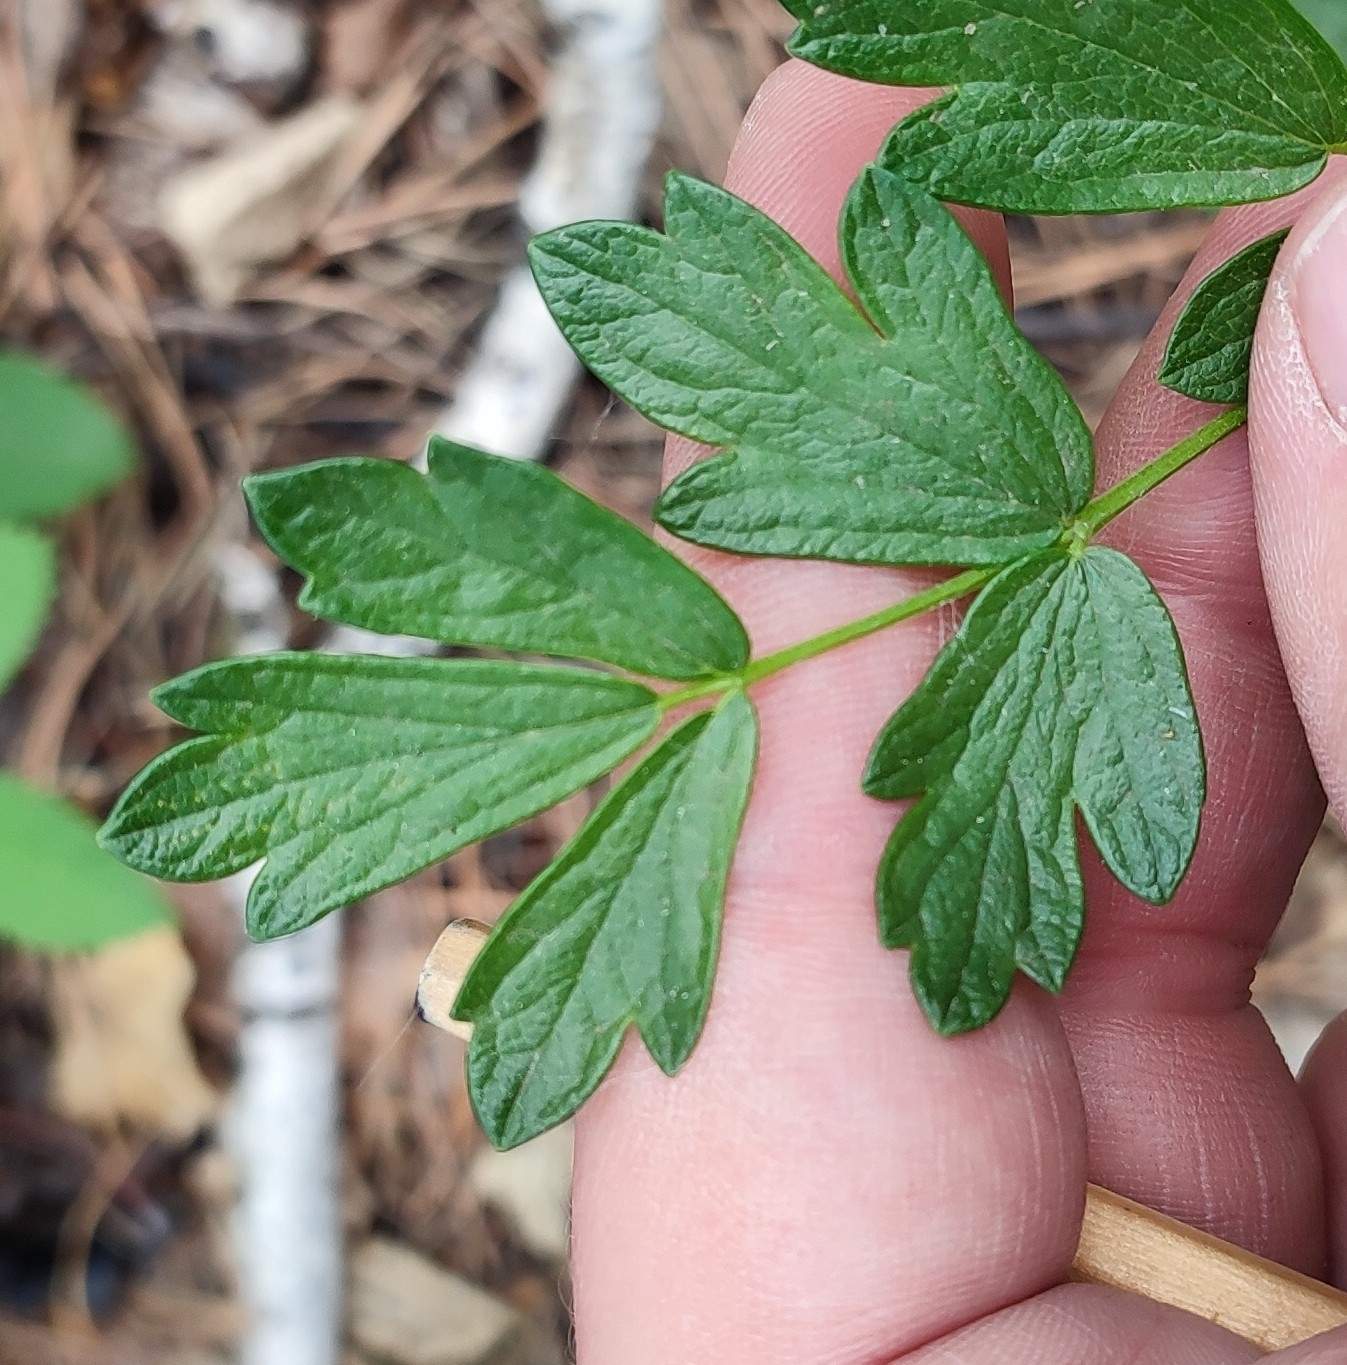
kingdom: Plantae
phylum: Tracheophyta
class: Magnoliopsida
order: Ranunculales
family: Ranunculaceae
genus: Thalictrum
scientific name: Thalictrum simplex
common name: Small meadow-rue
